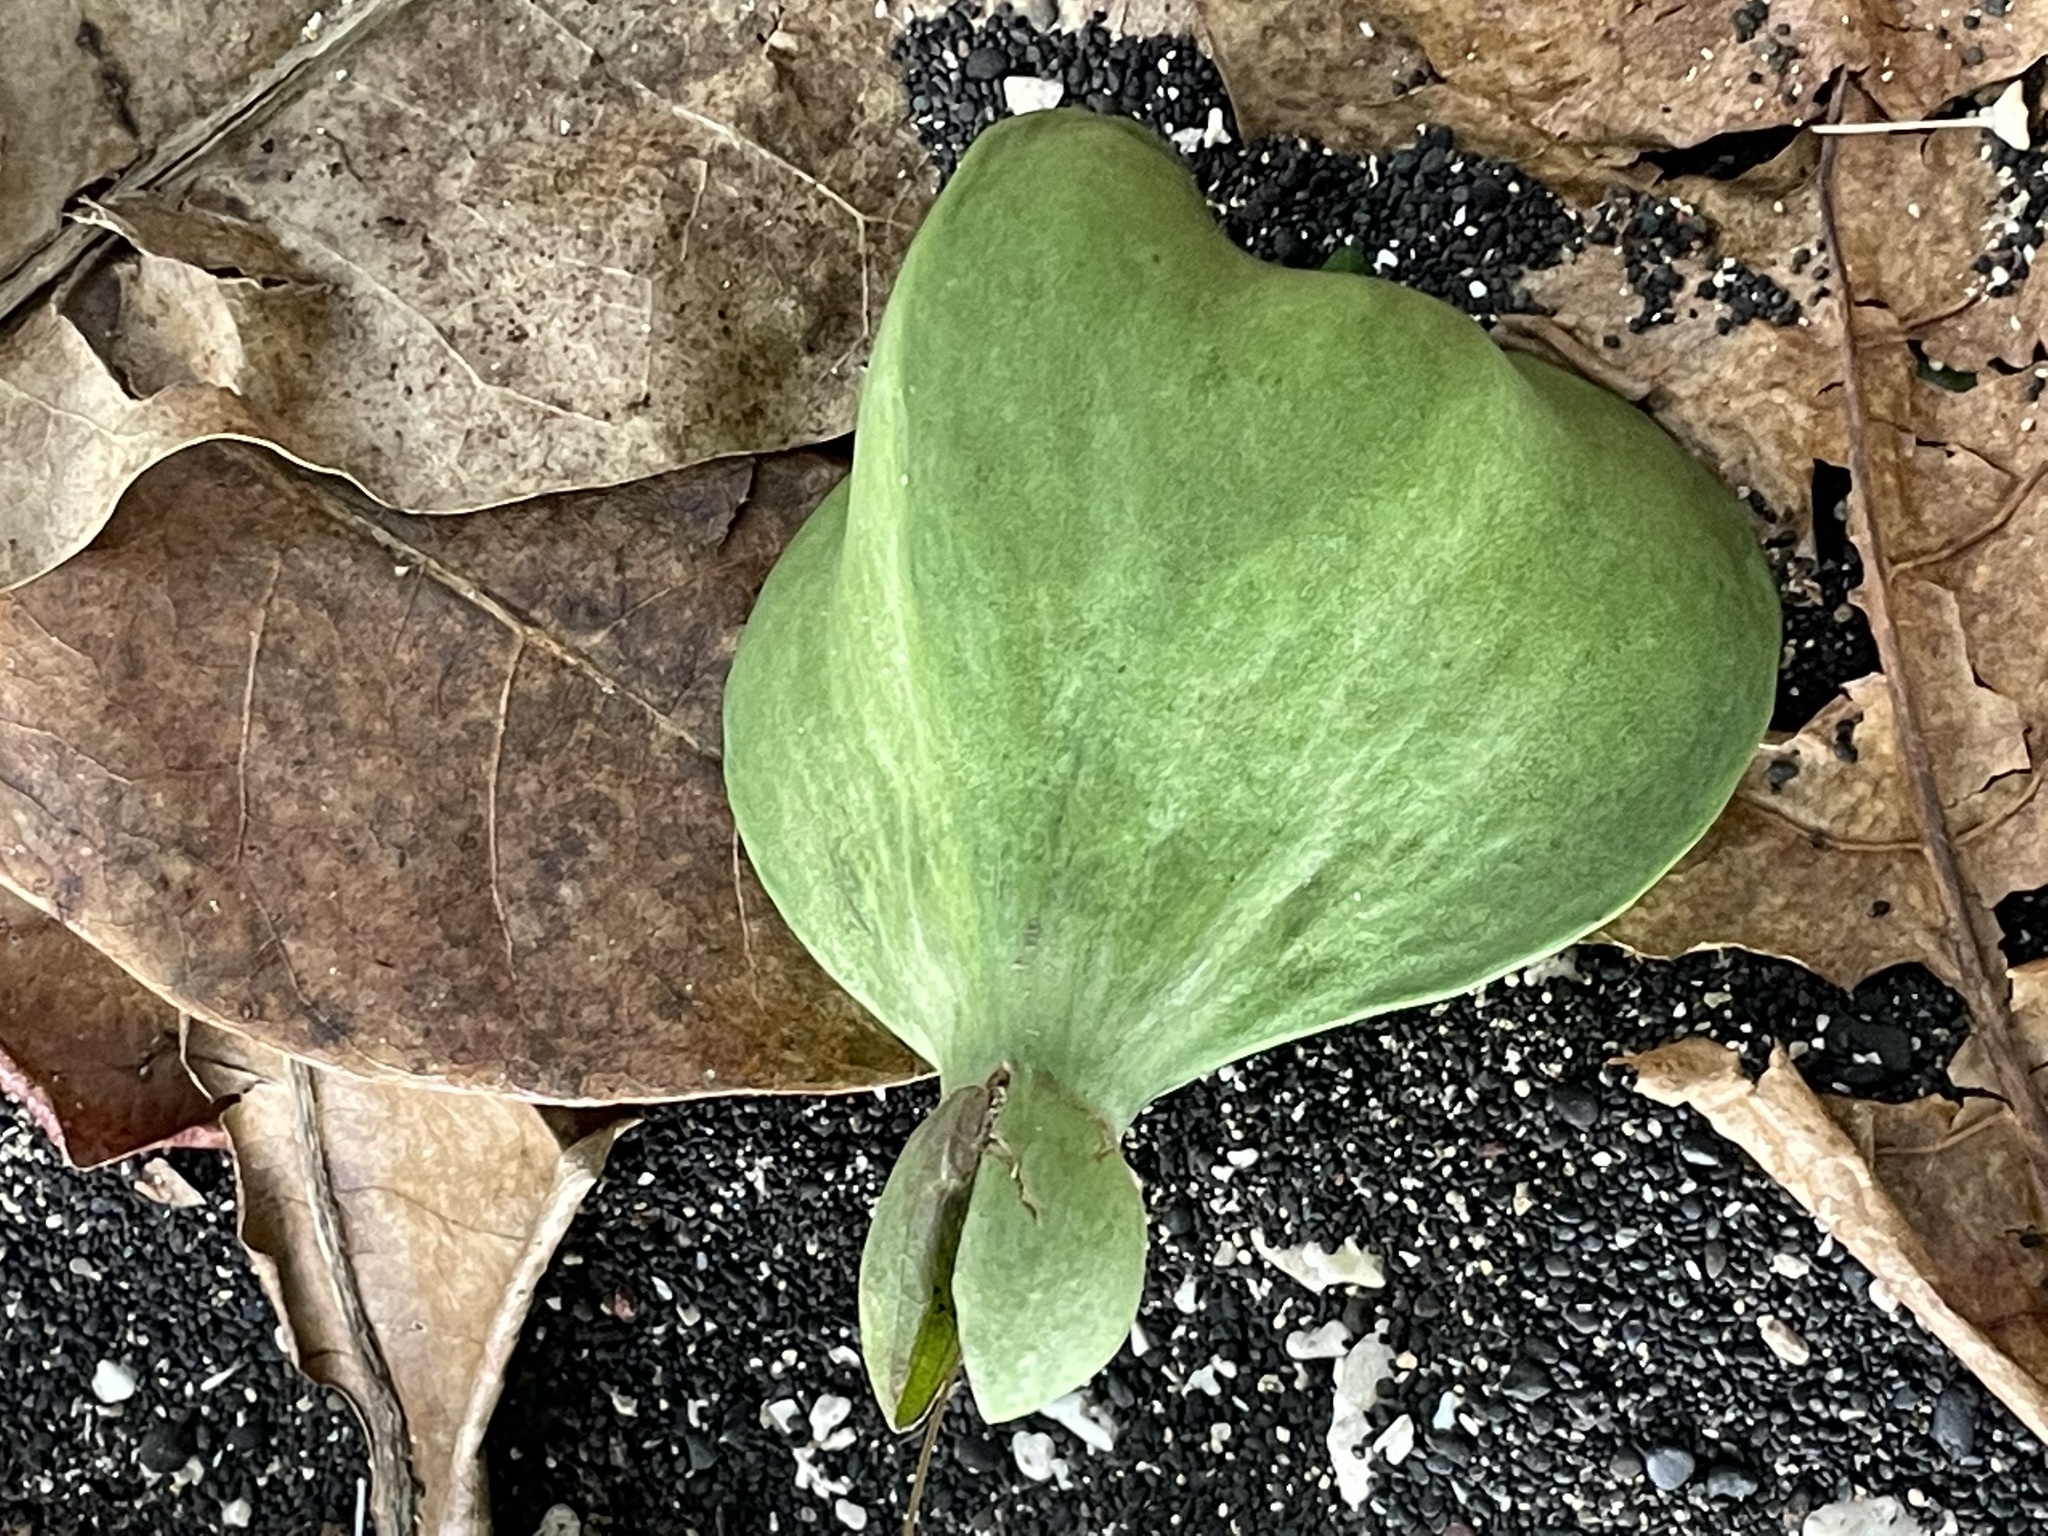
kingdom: Plantae
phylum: Tracheophyta
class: Magnoliopsida
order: Ericales
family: Lecythidaceae
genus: Barringtonia
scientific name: Barringtonia asiatica
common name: Mango-pine
